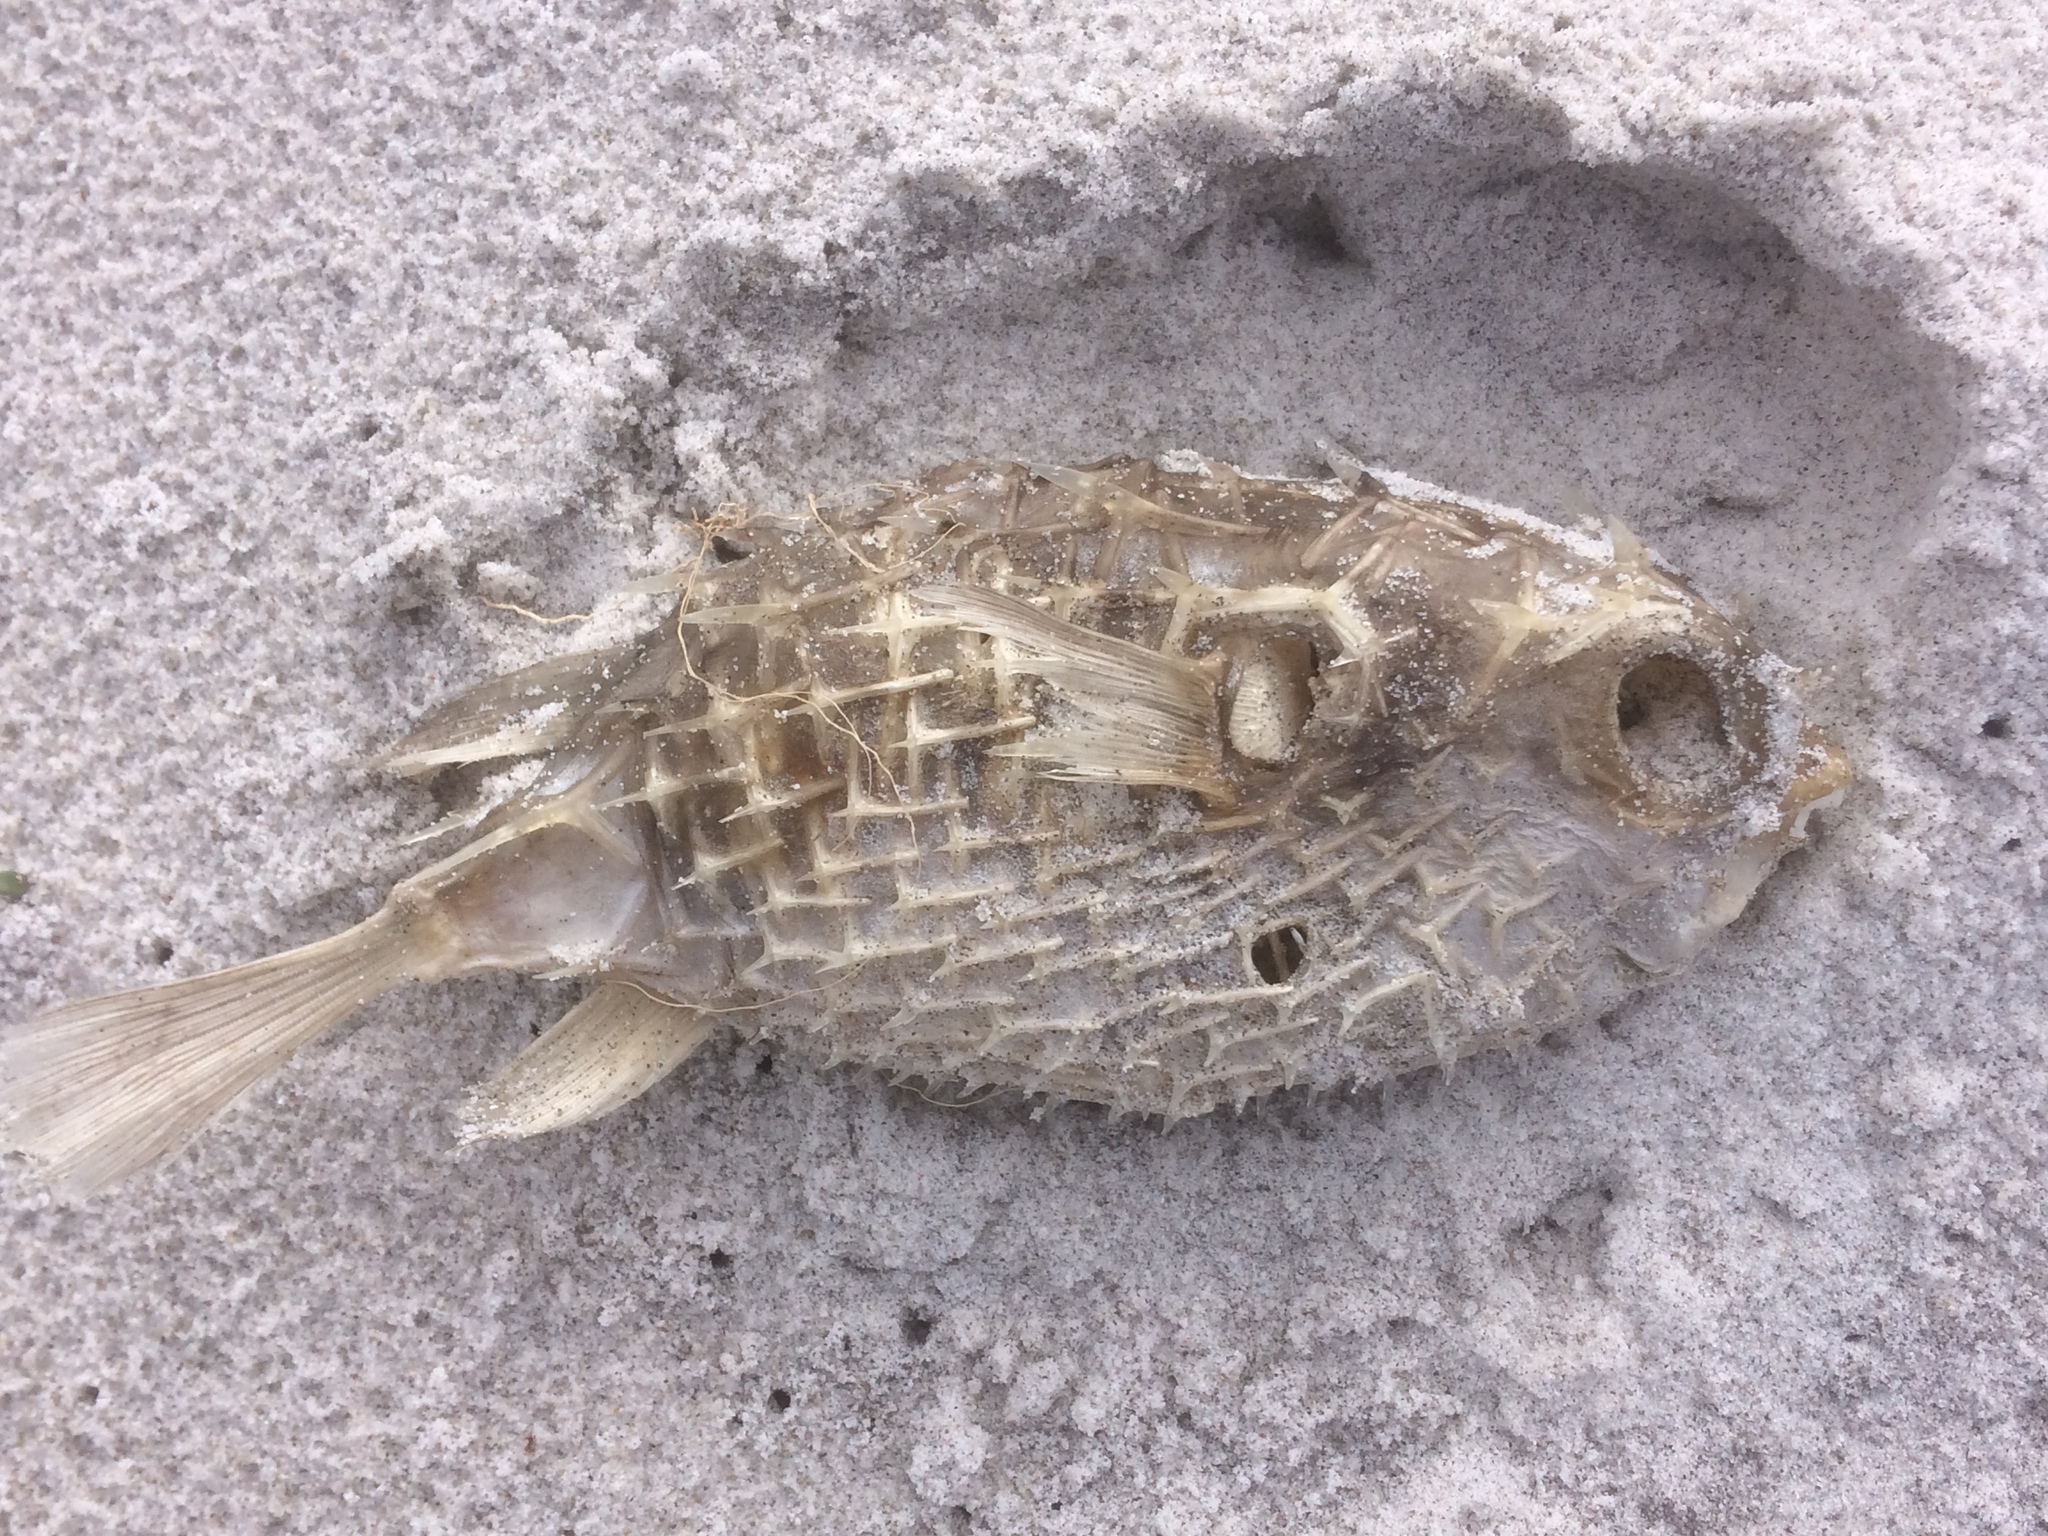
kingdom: Animalia
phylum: Chordata
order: Tetraodontiformes
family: Diodontidae
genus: Allomycterus
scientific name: Allomycterus pilatus
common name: No common name
